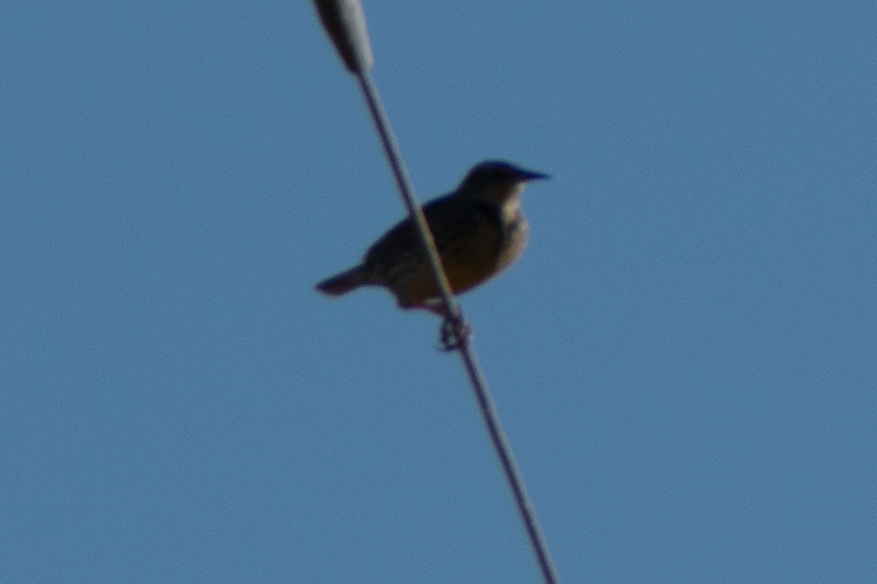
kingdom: Animalia
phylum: Chordata
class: Aves
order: Passeriformes
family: Icteridae
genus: Sturnella
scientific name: Sturnella neglecta
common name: Western meadowlark
